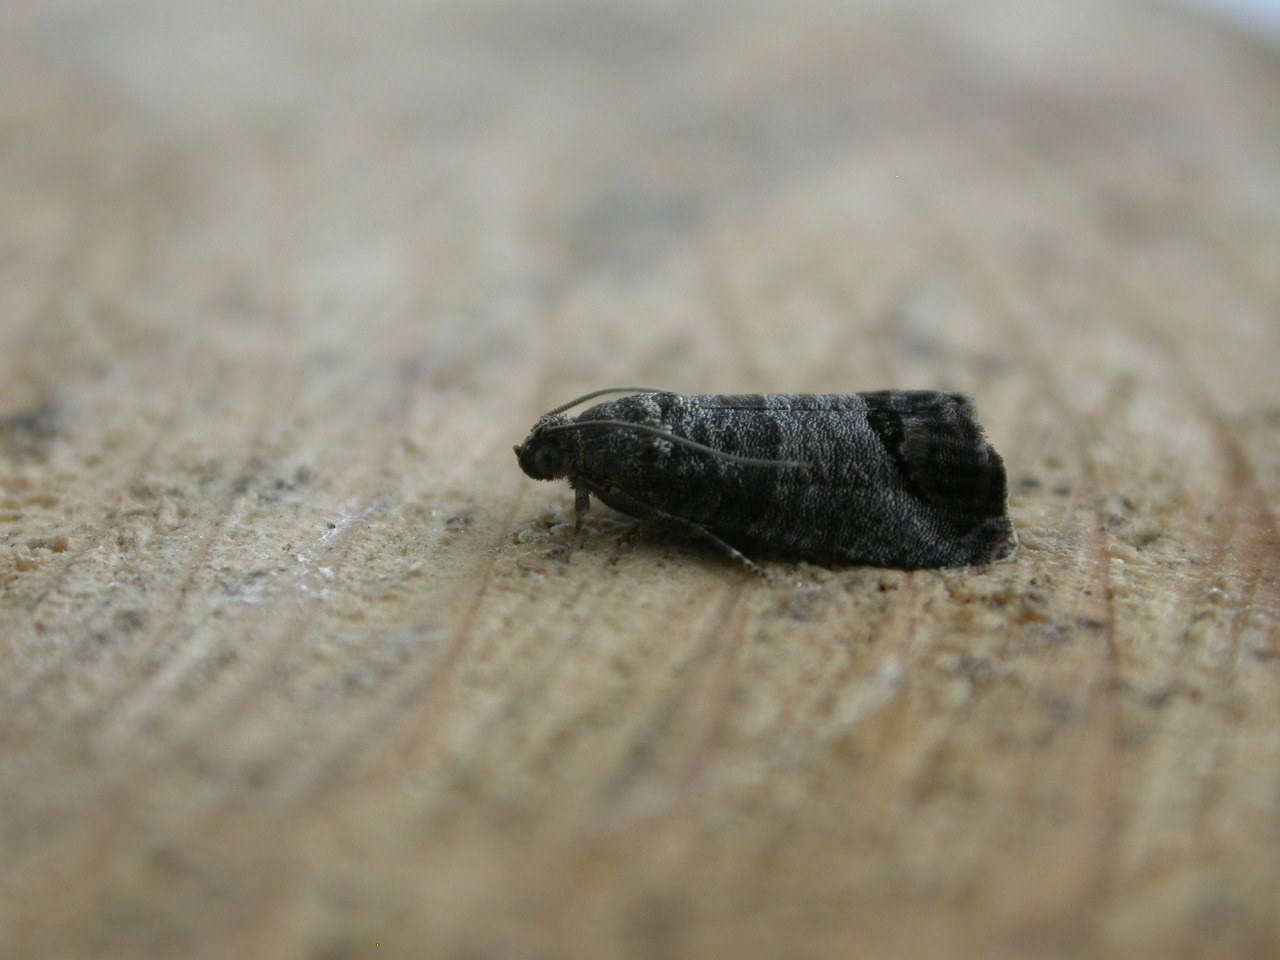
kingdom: Animalia
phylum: Arthropoda
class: Insecta
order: Lepidoptera
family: Tortricidae
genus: Cydia
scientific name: Cydia pomonella
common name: Codling moth
